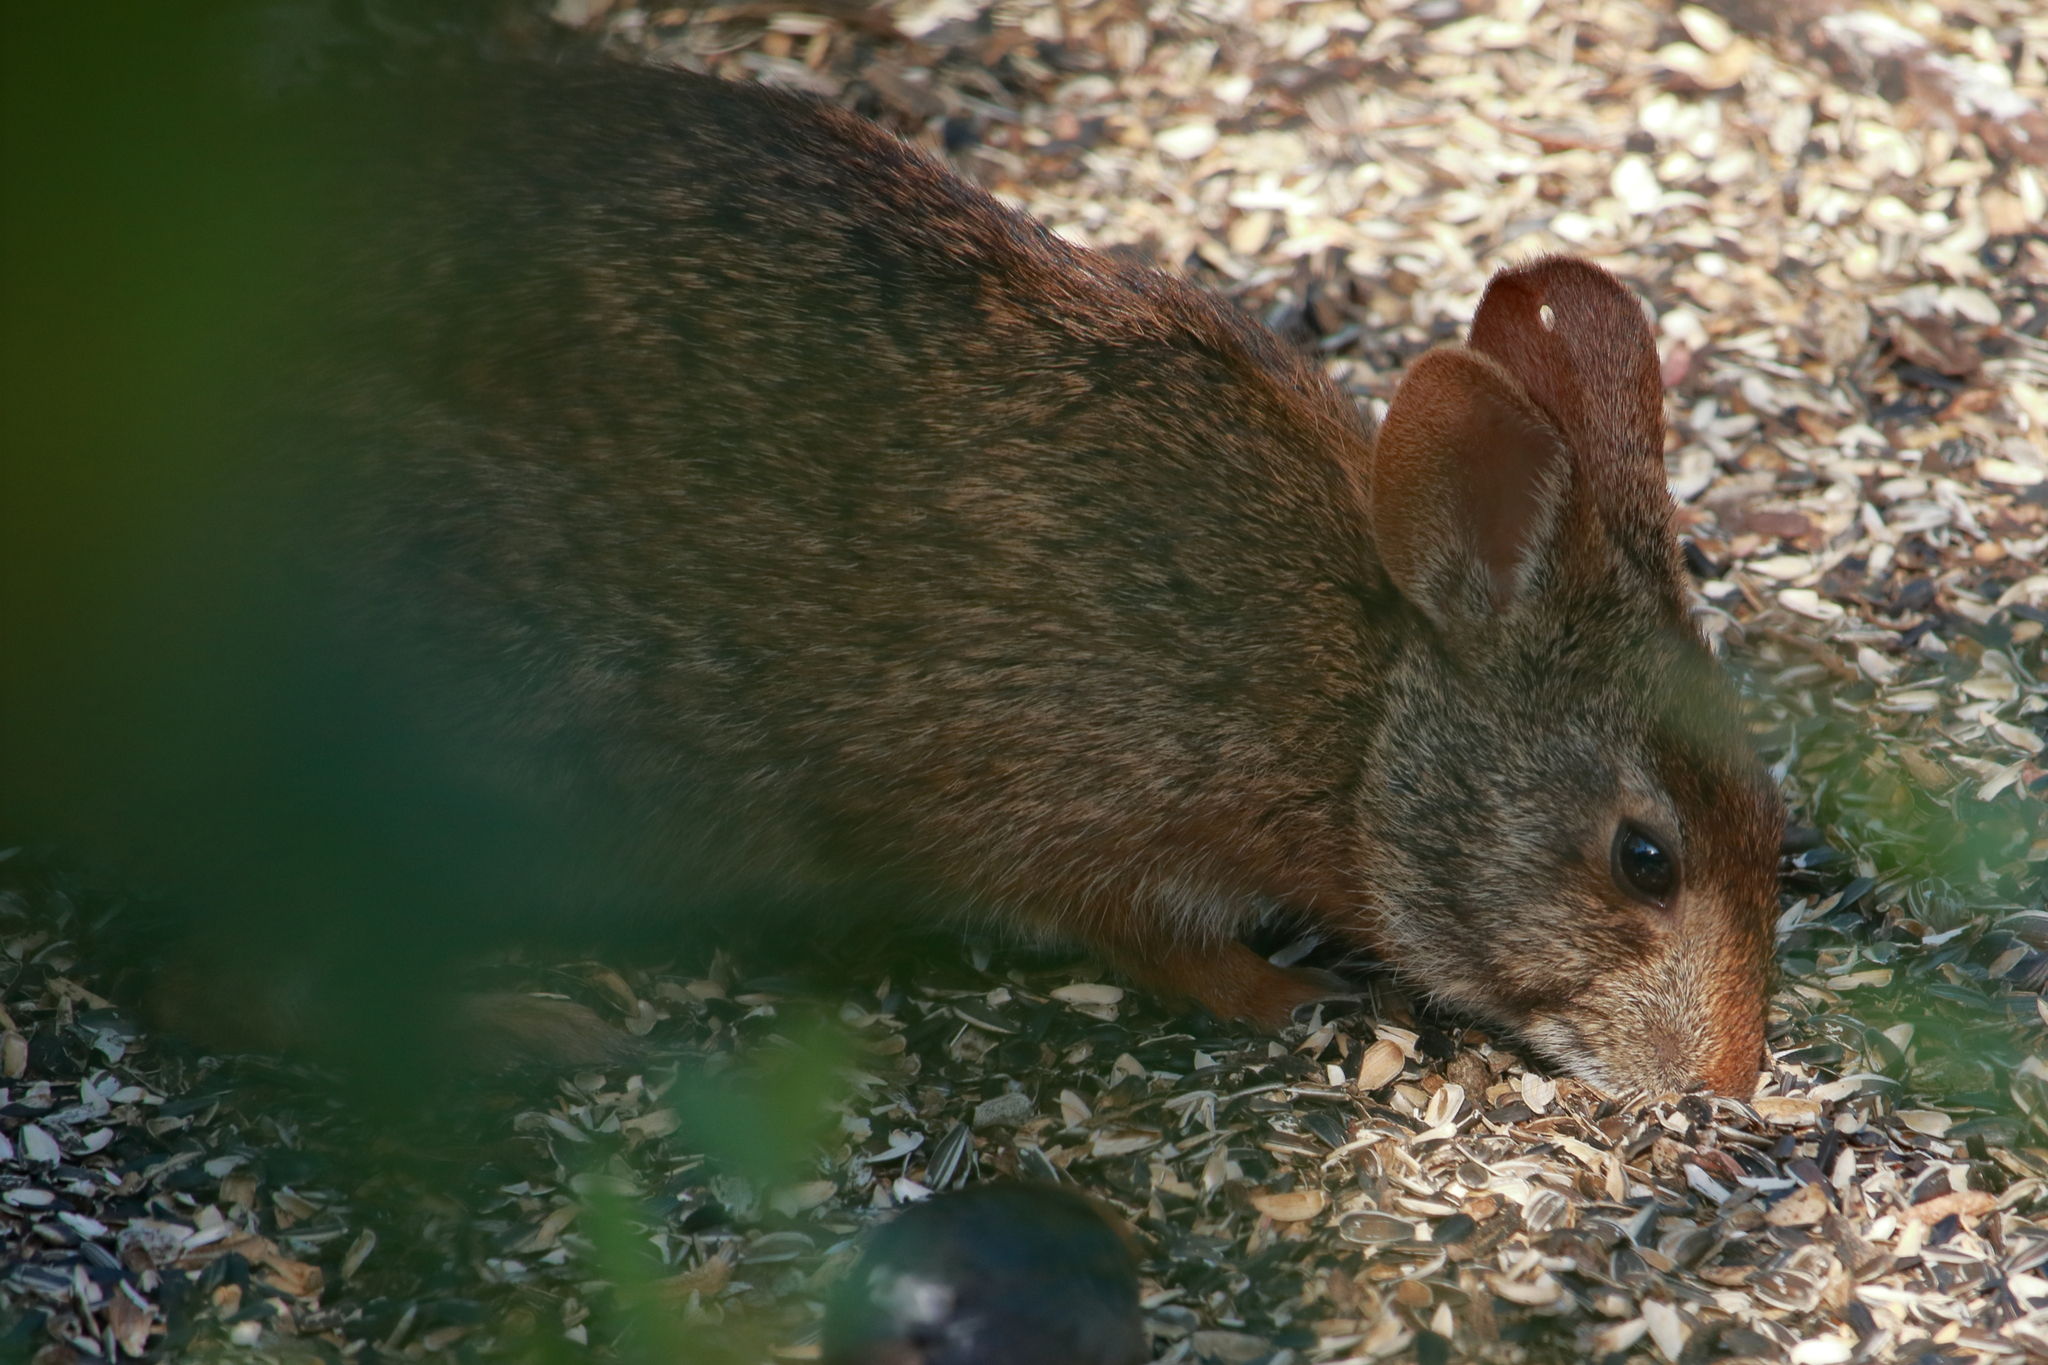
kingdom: Animalia
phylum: Chordata
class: Mammalia
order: Lagomorpha
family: Leporidae
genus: Sylvilagus
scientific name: Sylvilagus palustris
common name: Marsh rabbit
